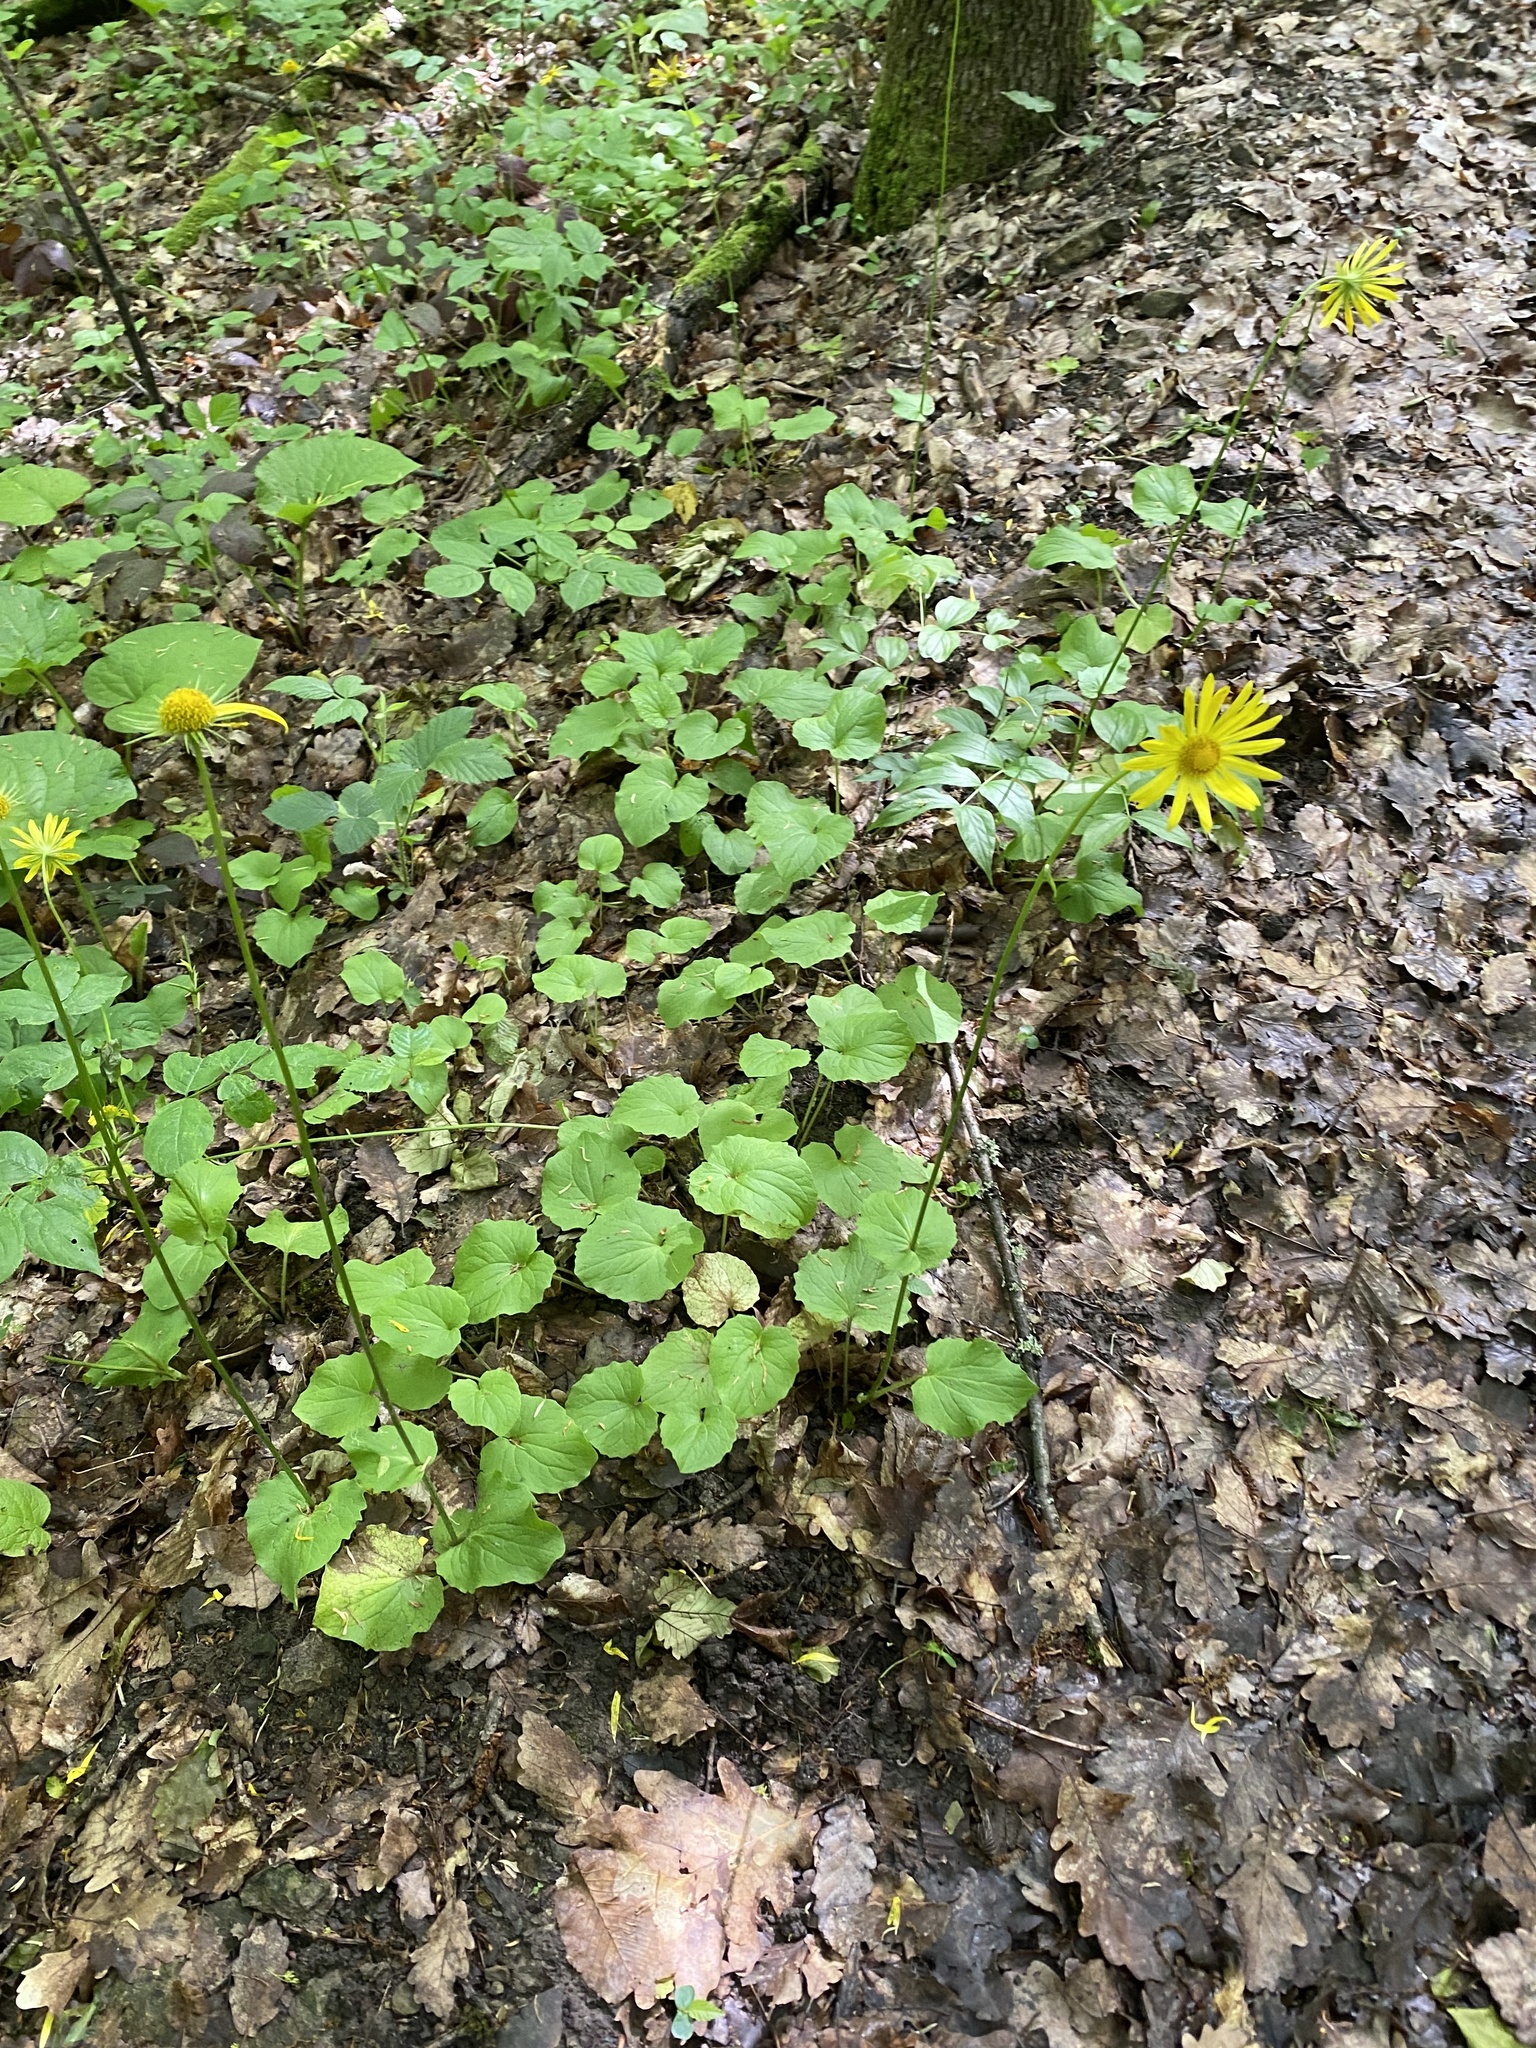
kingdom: Plantae
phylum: Tracheophyta
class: Magnoliopsida
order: Asterales
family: Asteraceae
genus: Doronicum
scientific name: Doronicum
